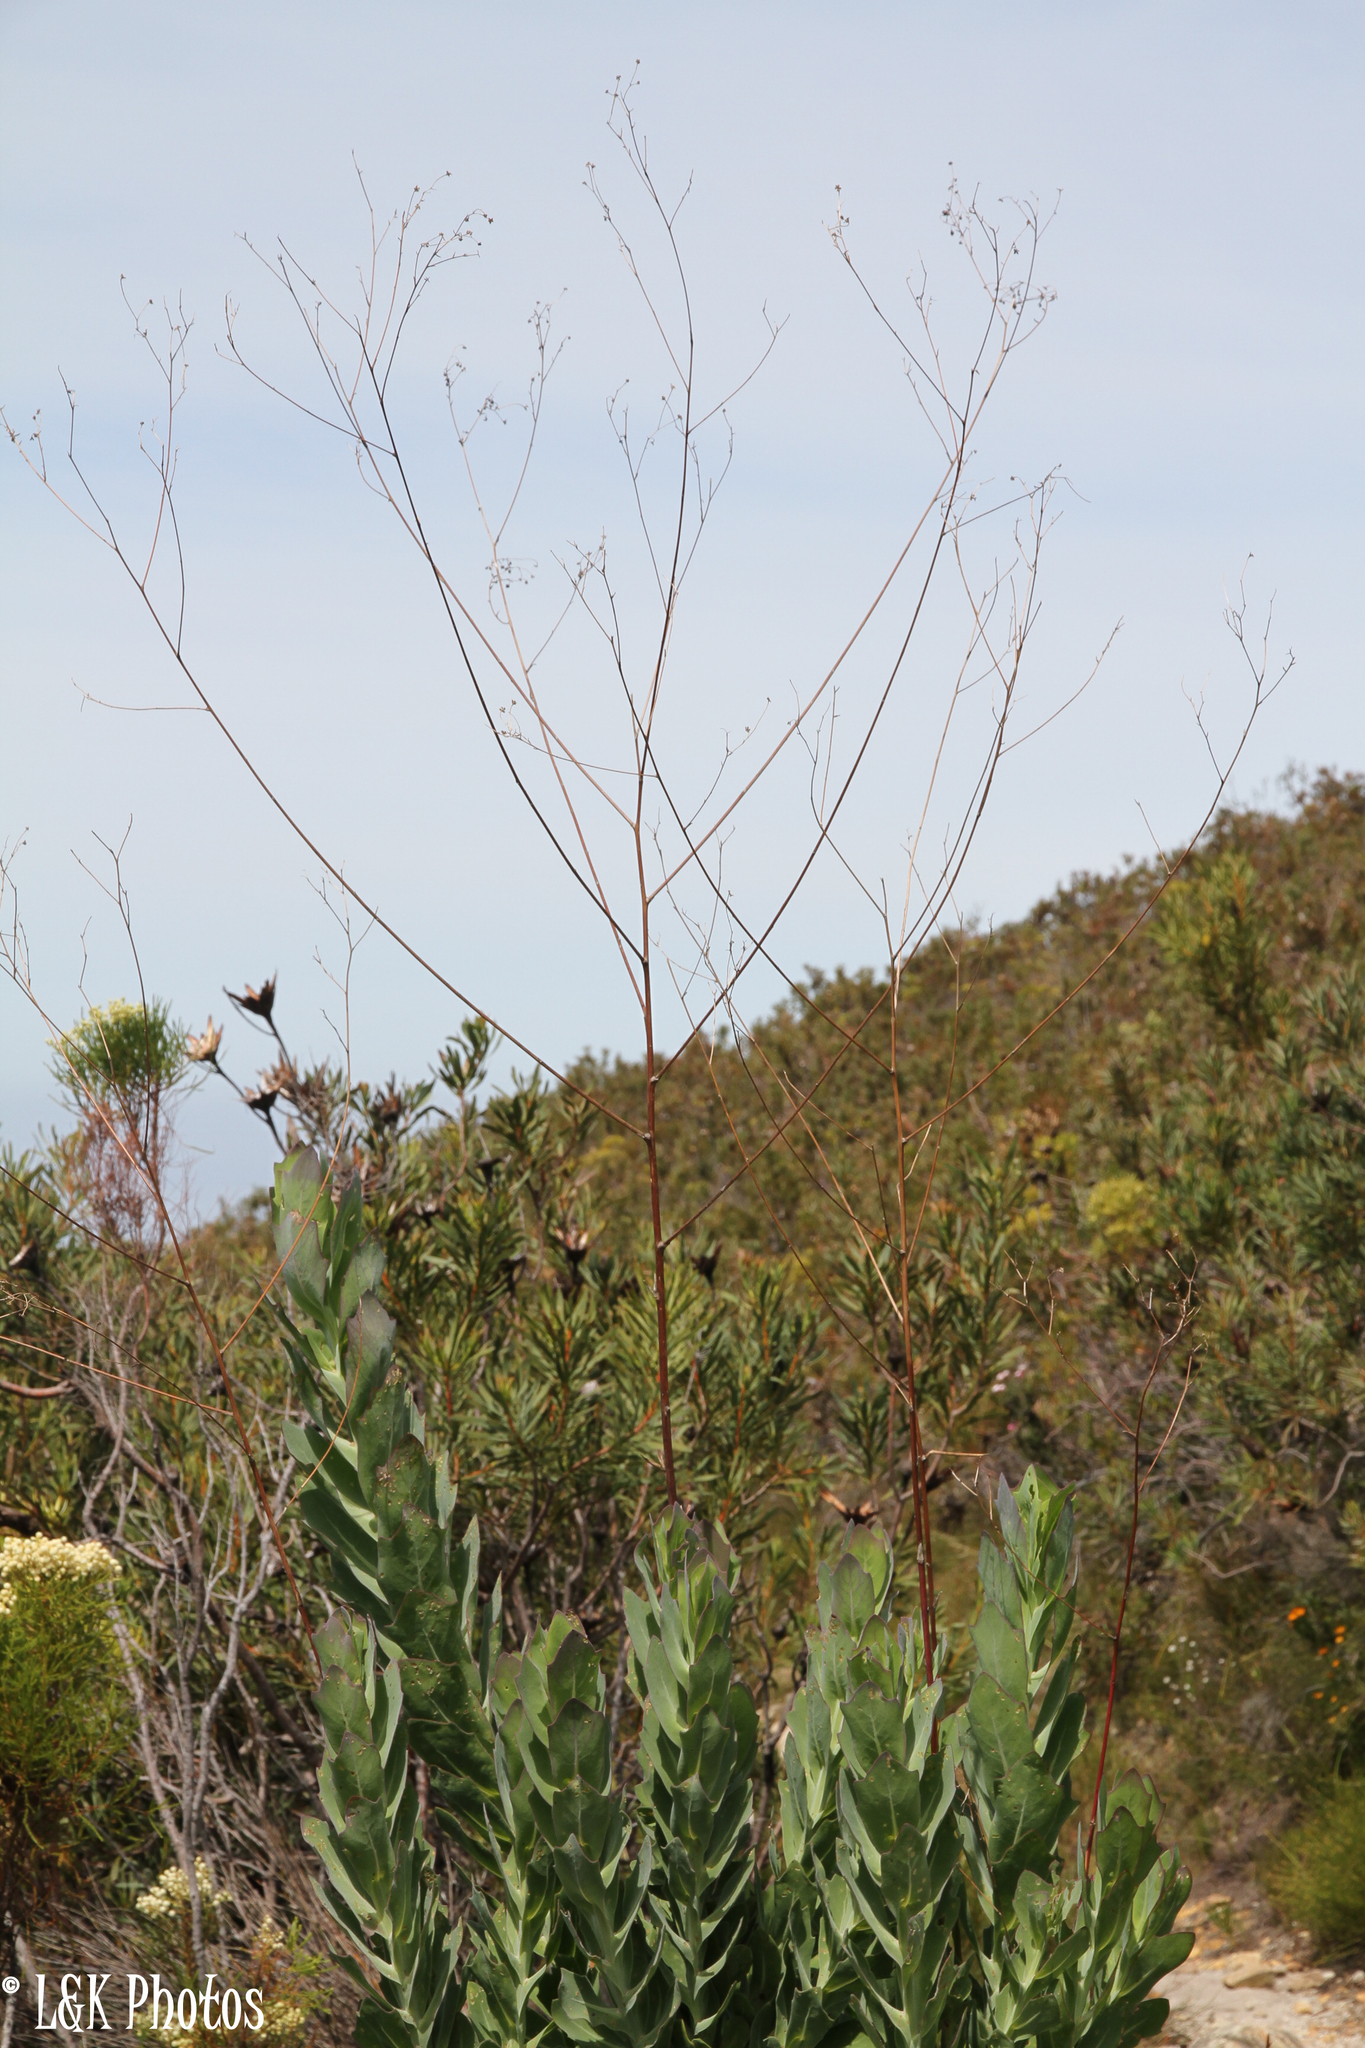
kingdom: Plantae
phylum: Tracheophyta
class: Magnoliopsida
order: Asterales
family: Asteraceae
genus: Othonna
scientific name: Othonna quinquedentata
